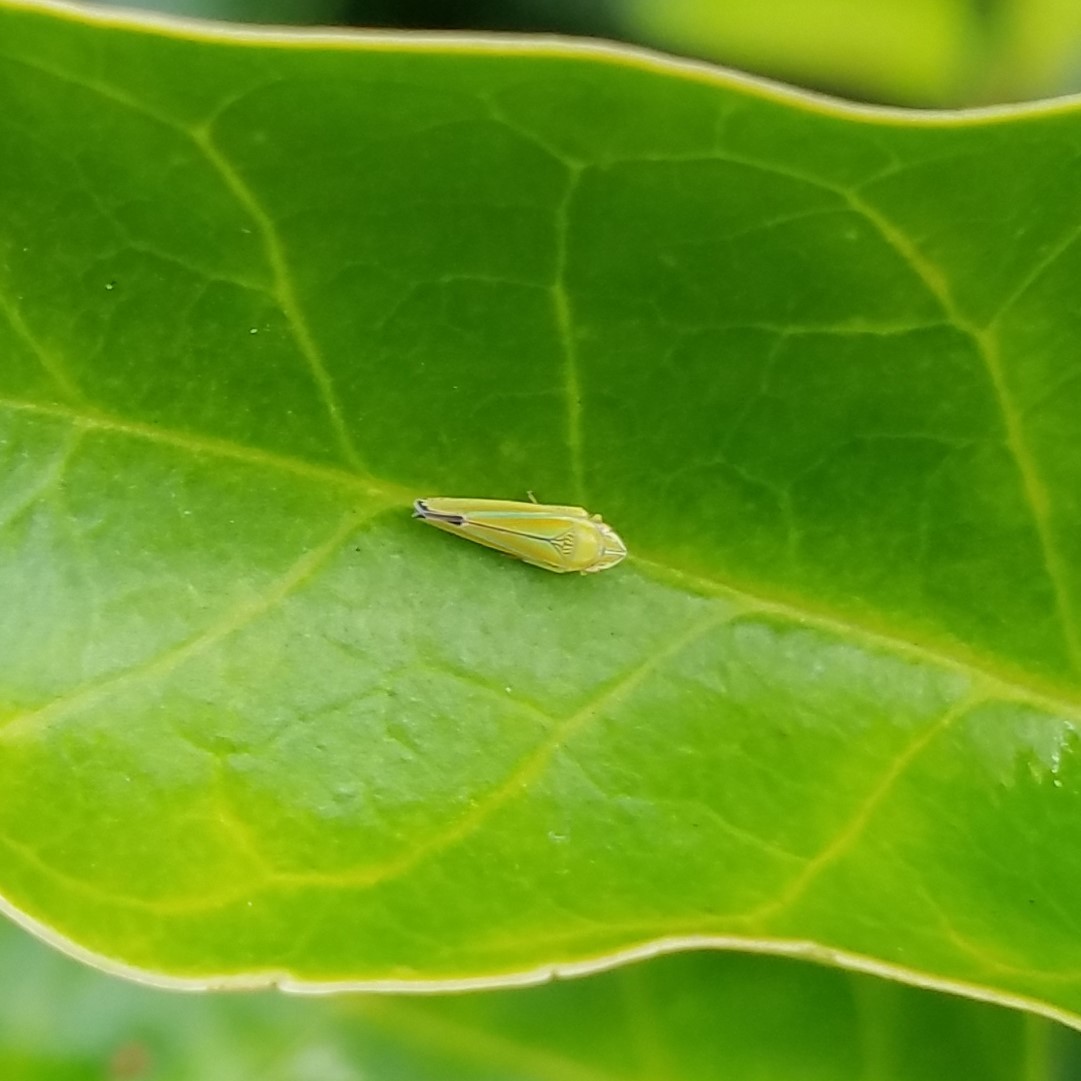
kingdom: Animalia
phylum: Arthropoda
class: Insecta
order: Hemiptera
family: Cicadellidae
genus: Graphocephala
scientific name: Graphocephala versuta
